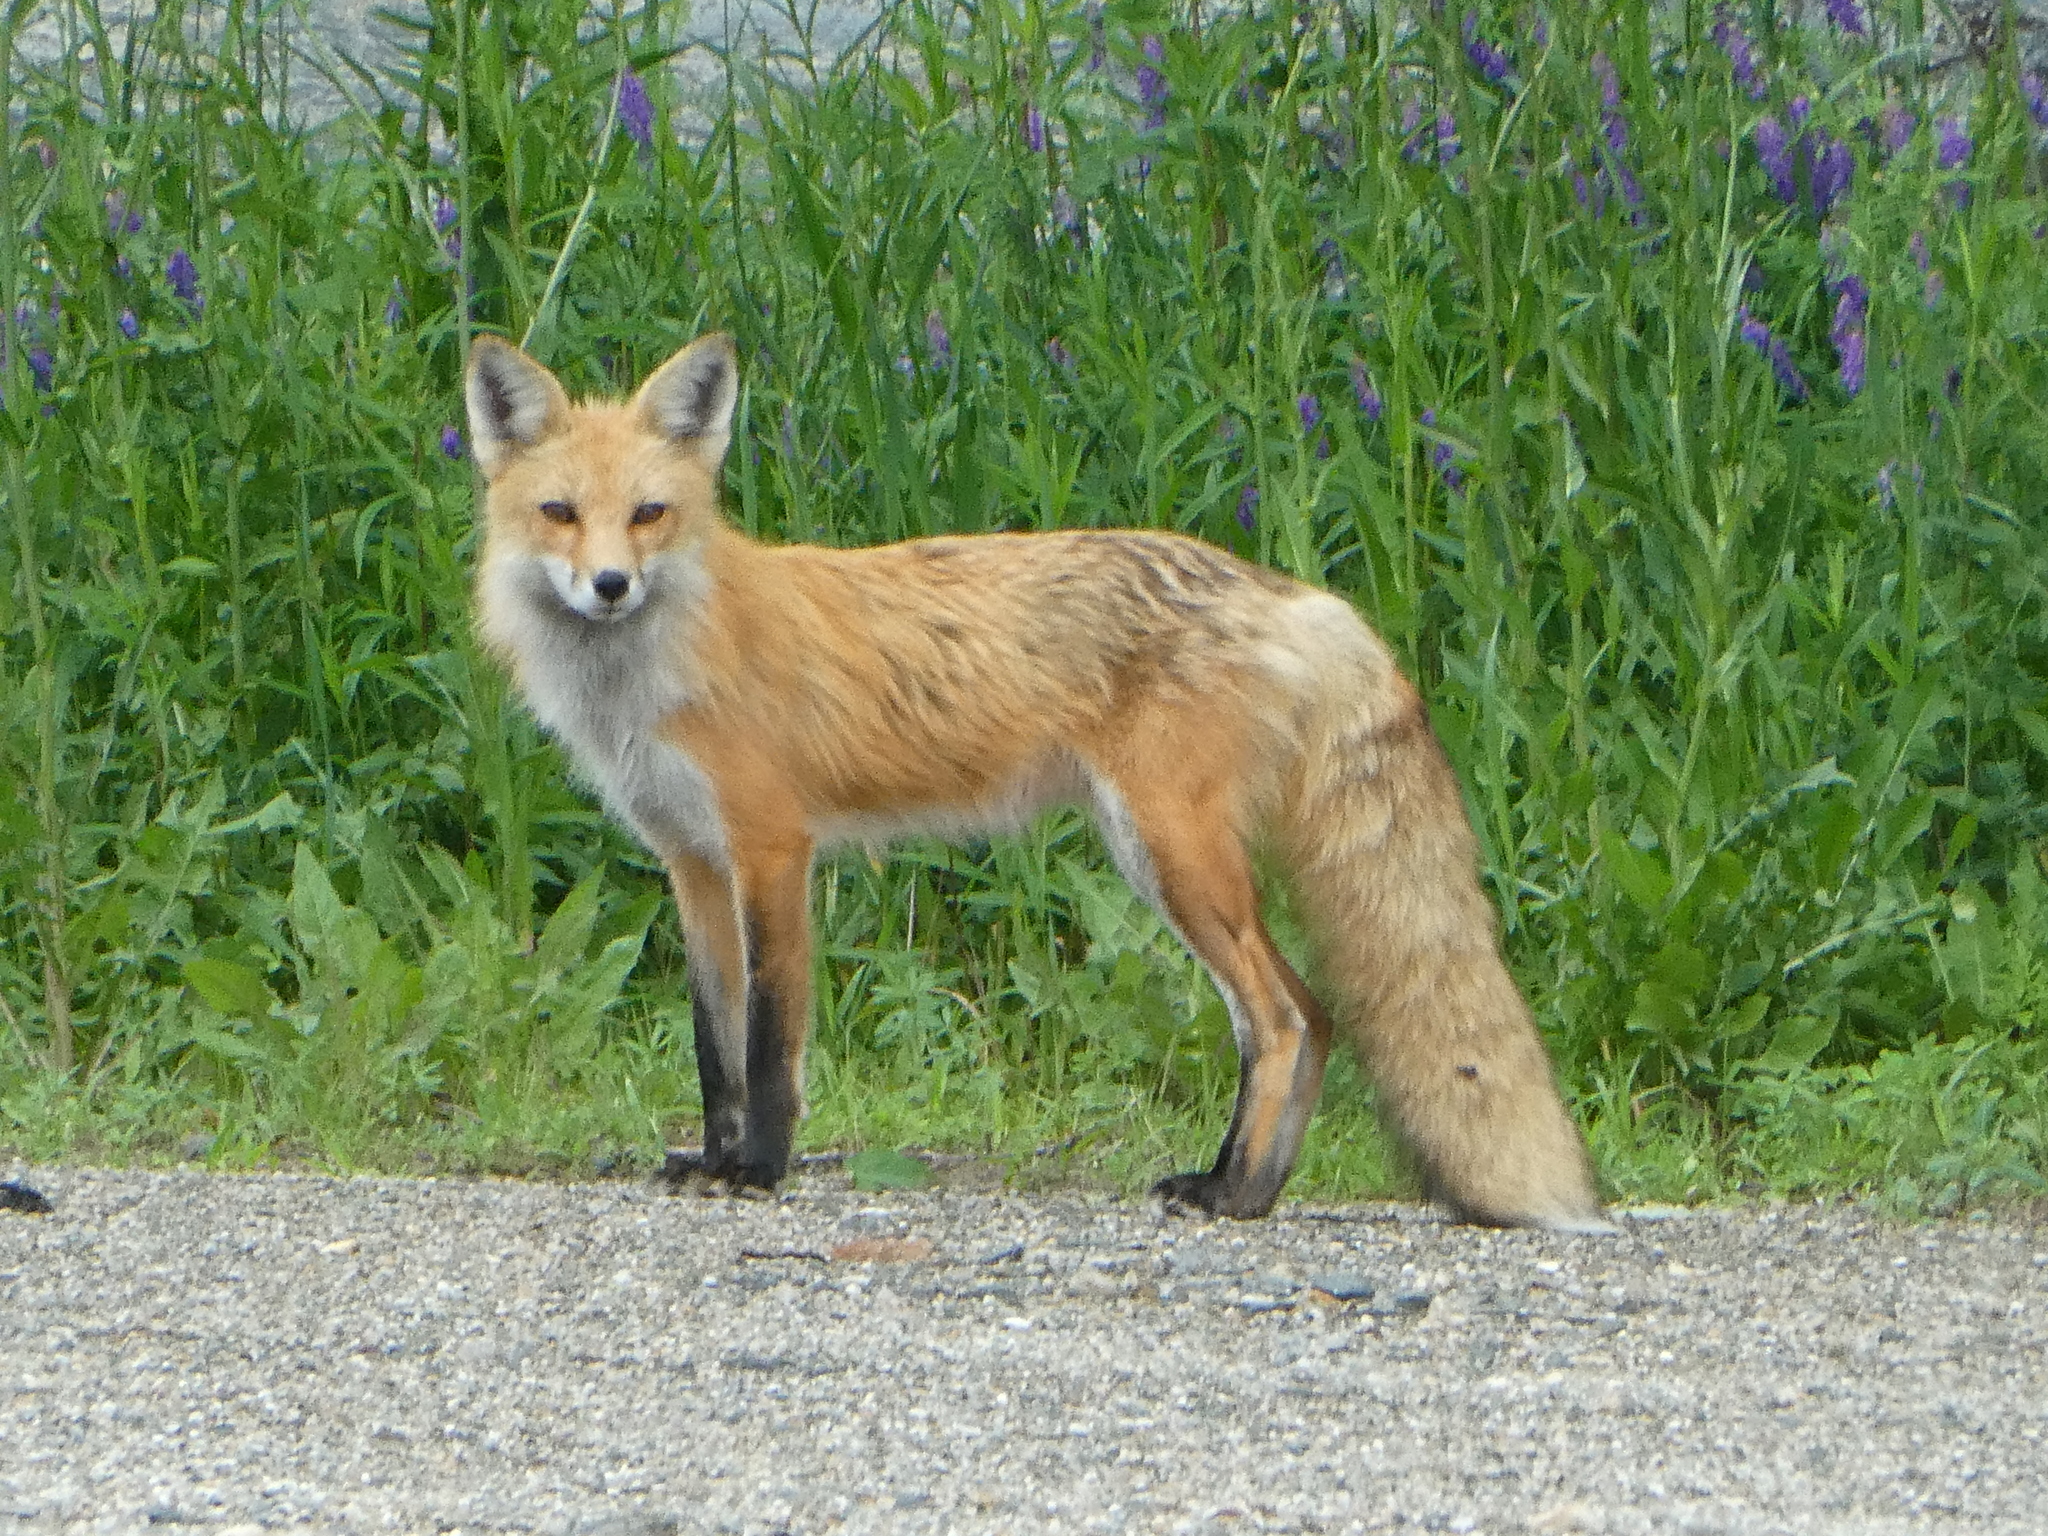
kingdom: Animalia
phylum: Chordata
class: Mammalia
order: Carnivora
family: Canidae
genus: Vulpes
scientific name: Vulpes vulpes
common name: Red fox
